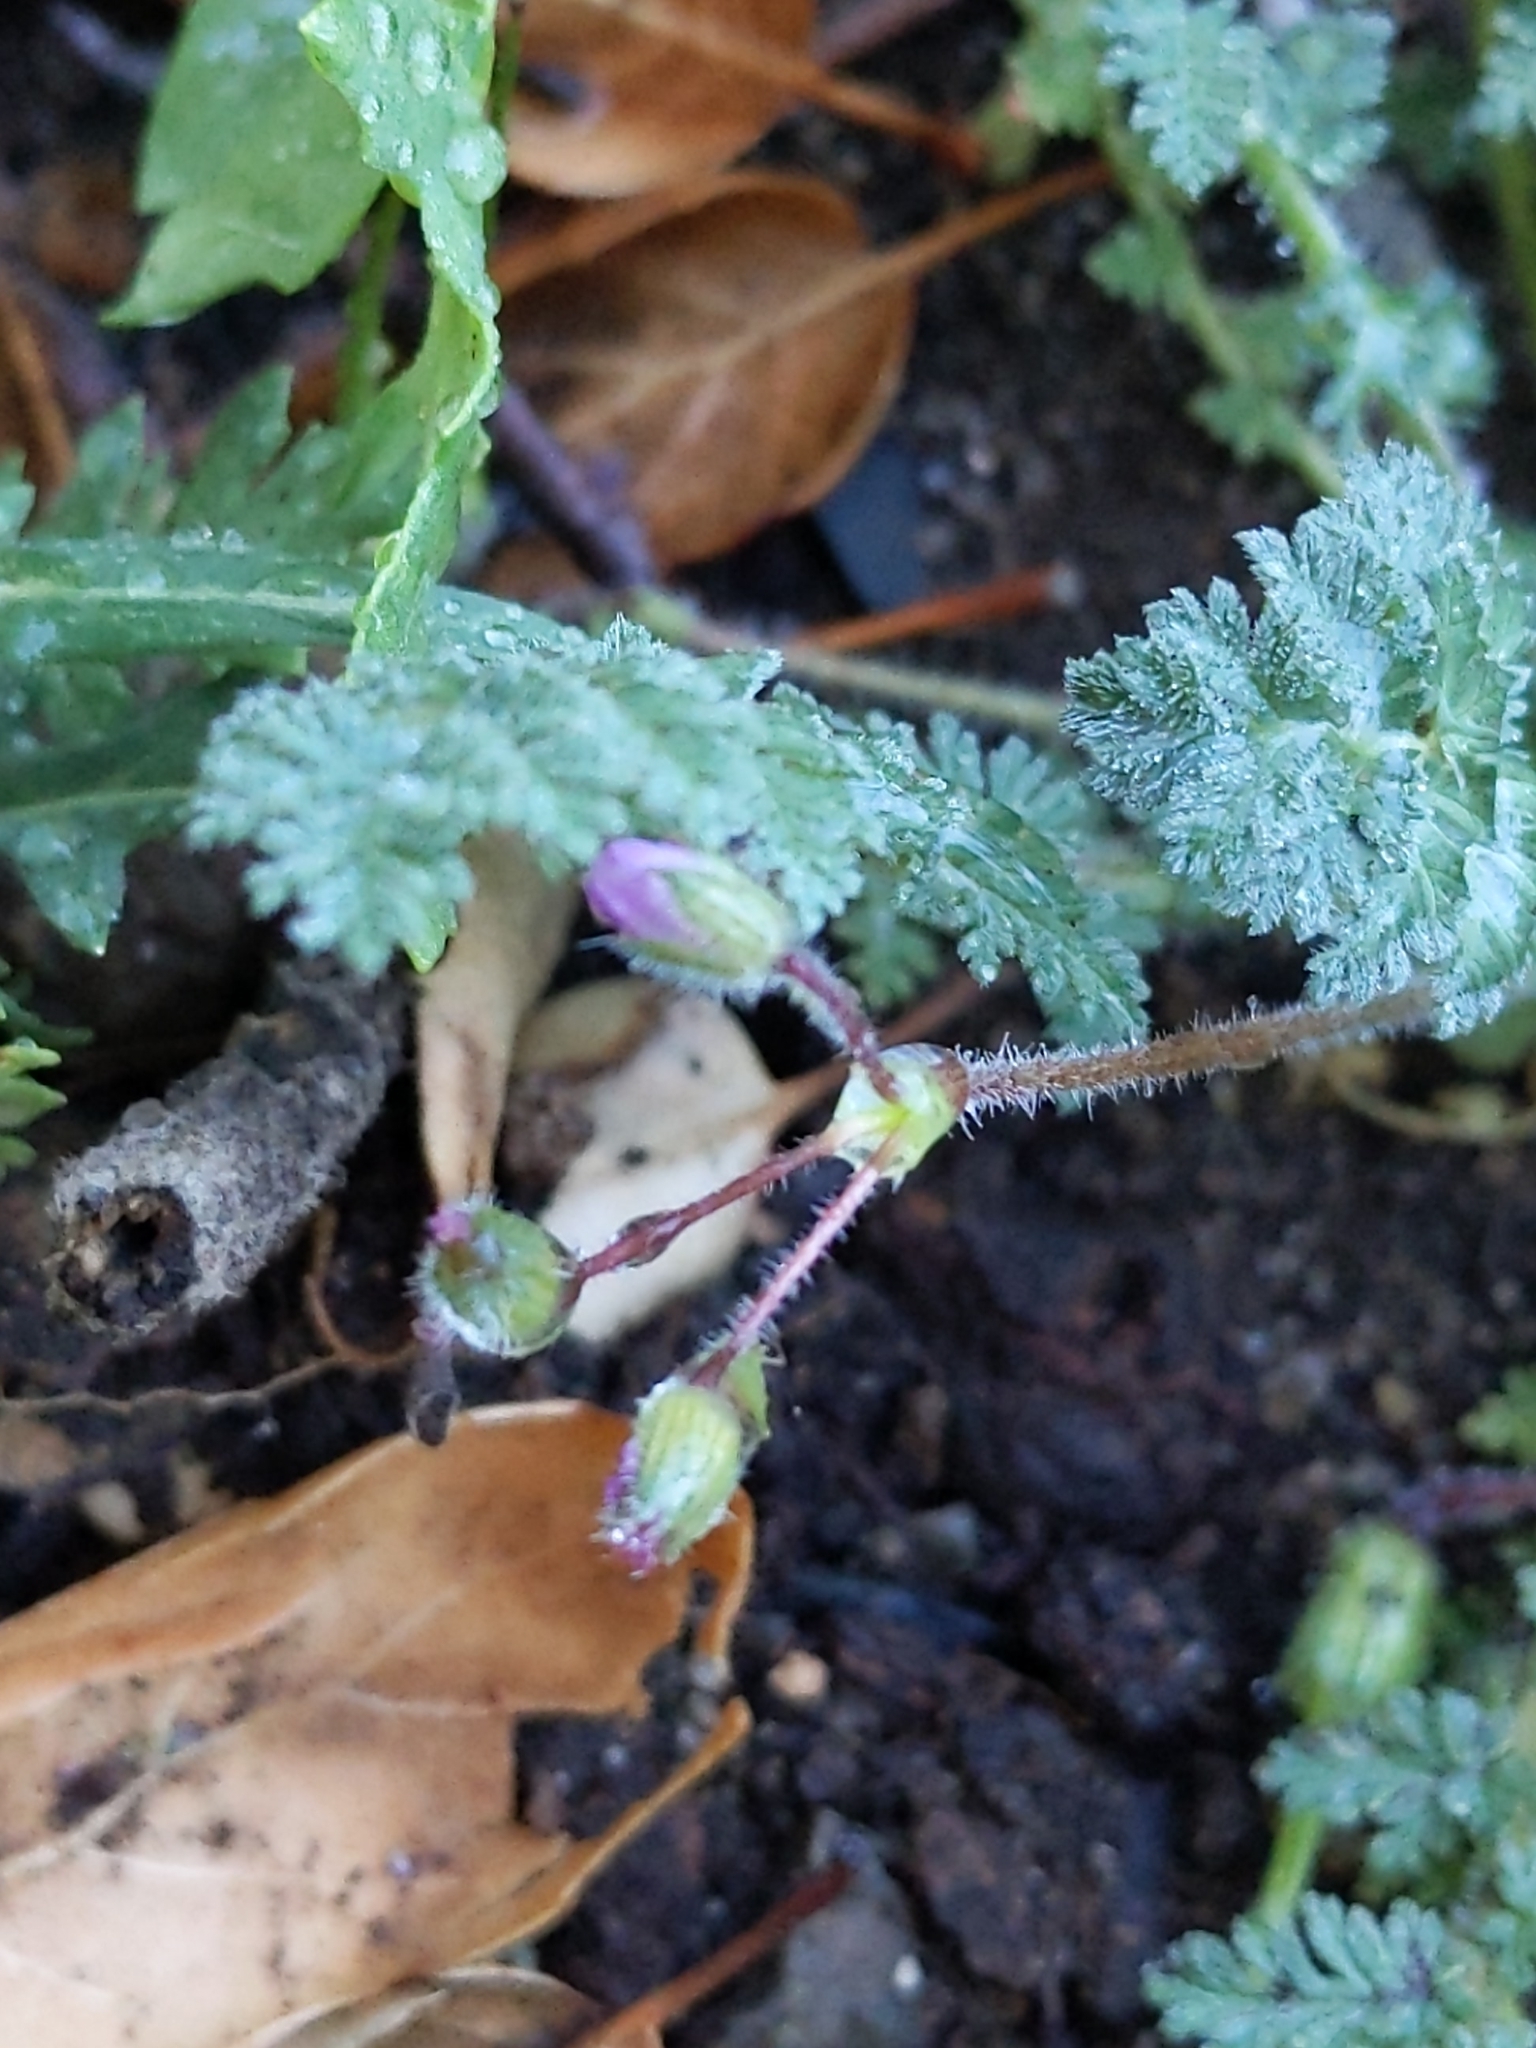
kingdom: Plantae
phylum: Tracheophyta
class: Magnoliopsida
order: Geraniales
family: Geraniaceae
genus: Erodium
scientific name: Erodium cicutarium
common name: Common stork's-bill
